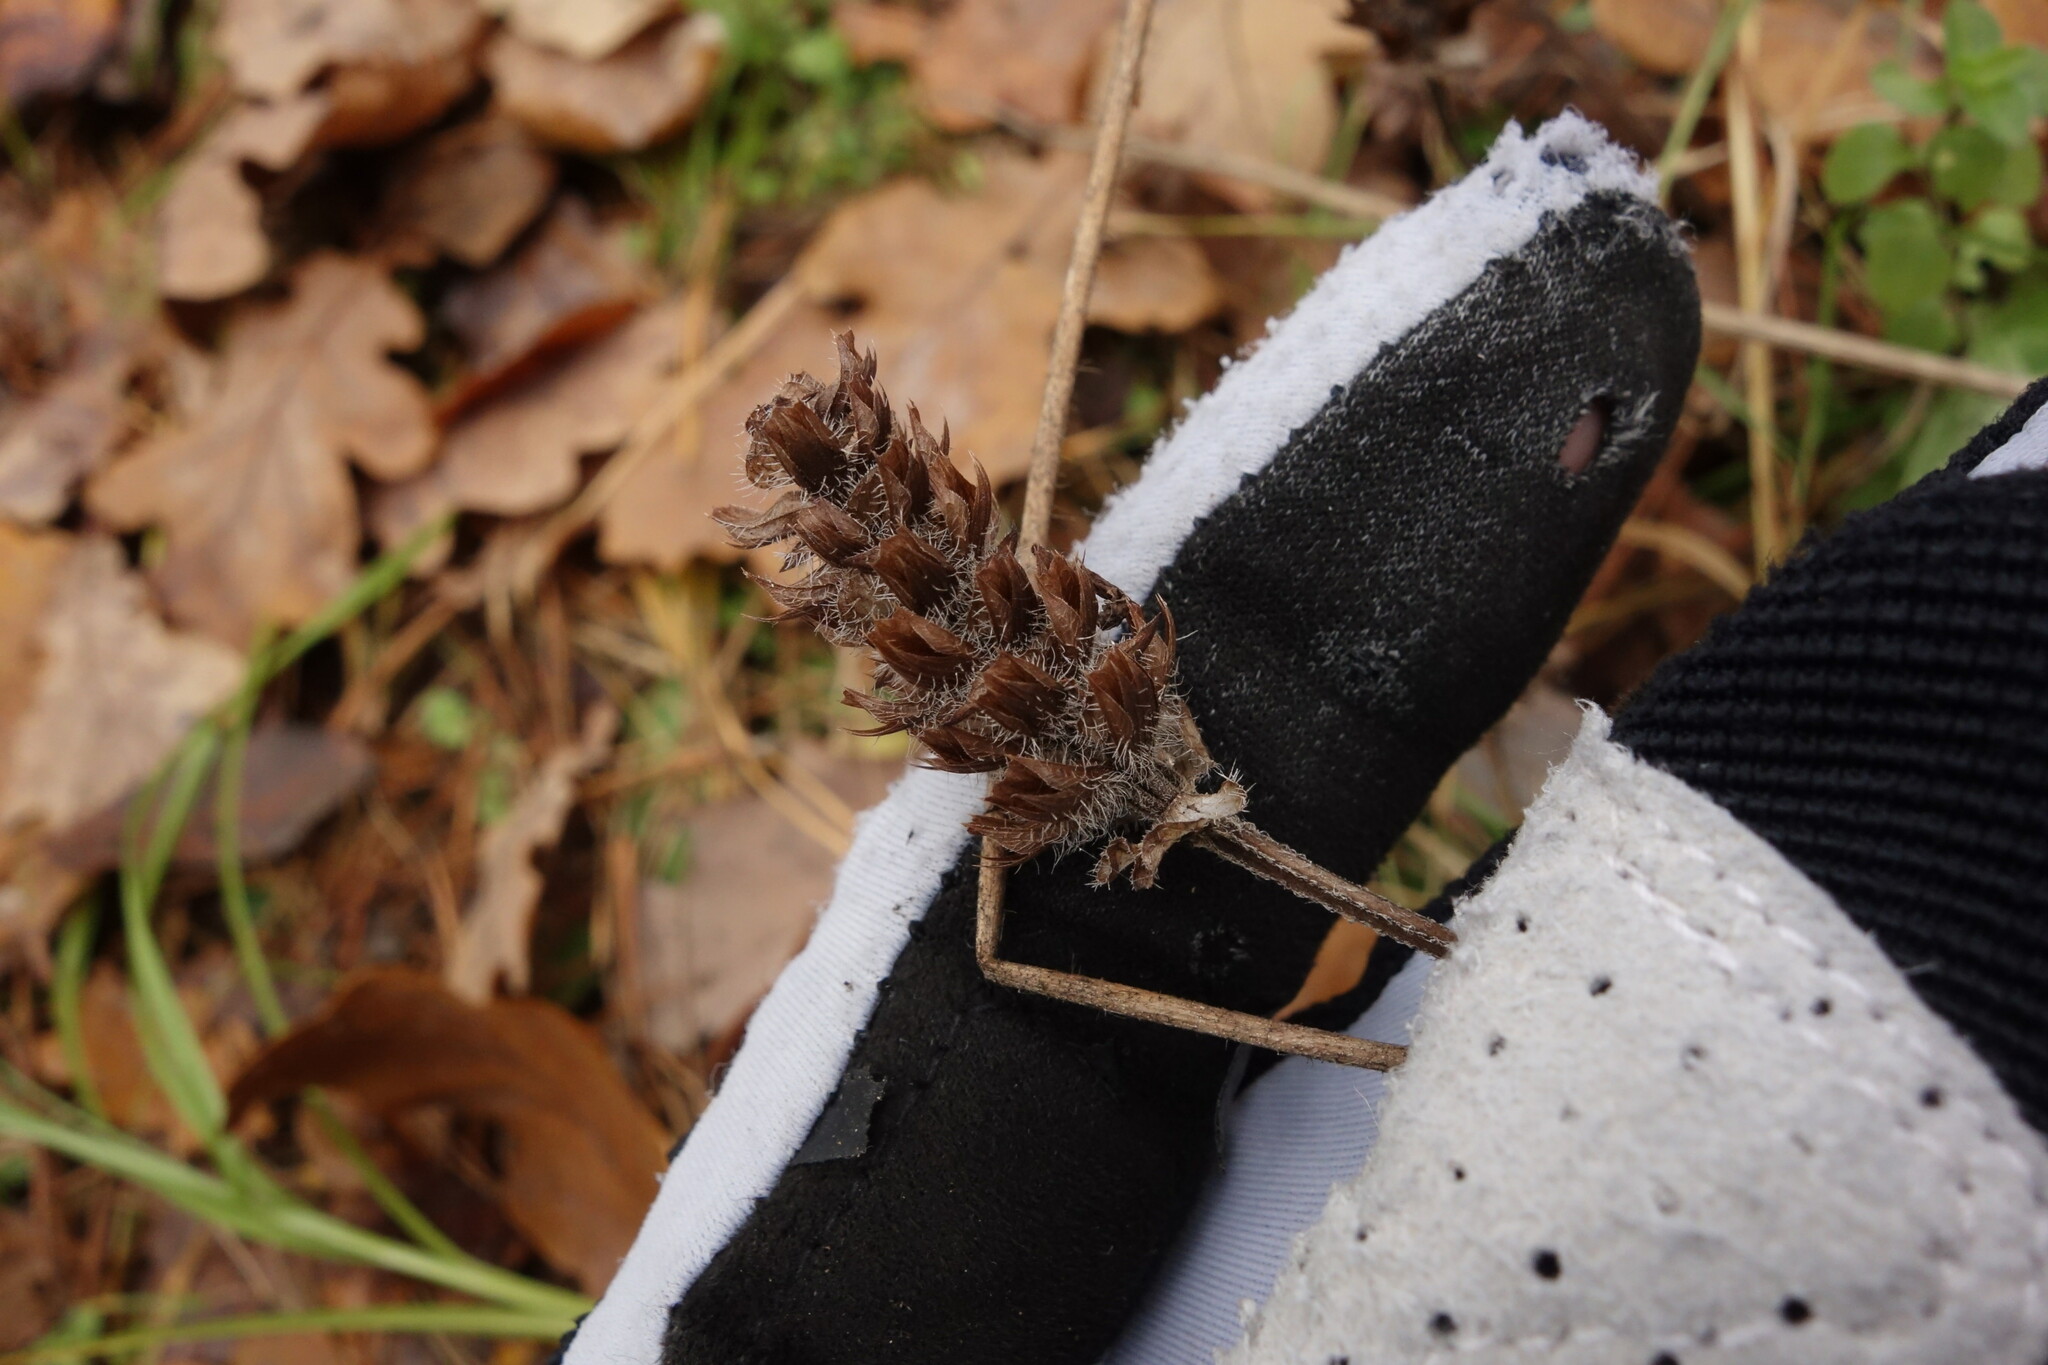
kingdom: Plantae
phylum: Tracheophyta
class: Magnoliopsida
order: Lamiales
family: Lamiaceae
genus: Prunella
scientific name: Prunella vulgaris
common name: Heal-all
